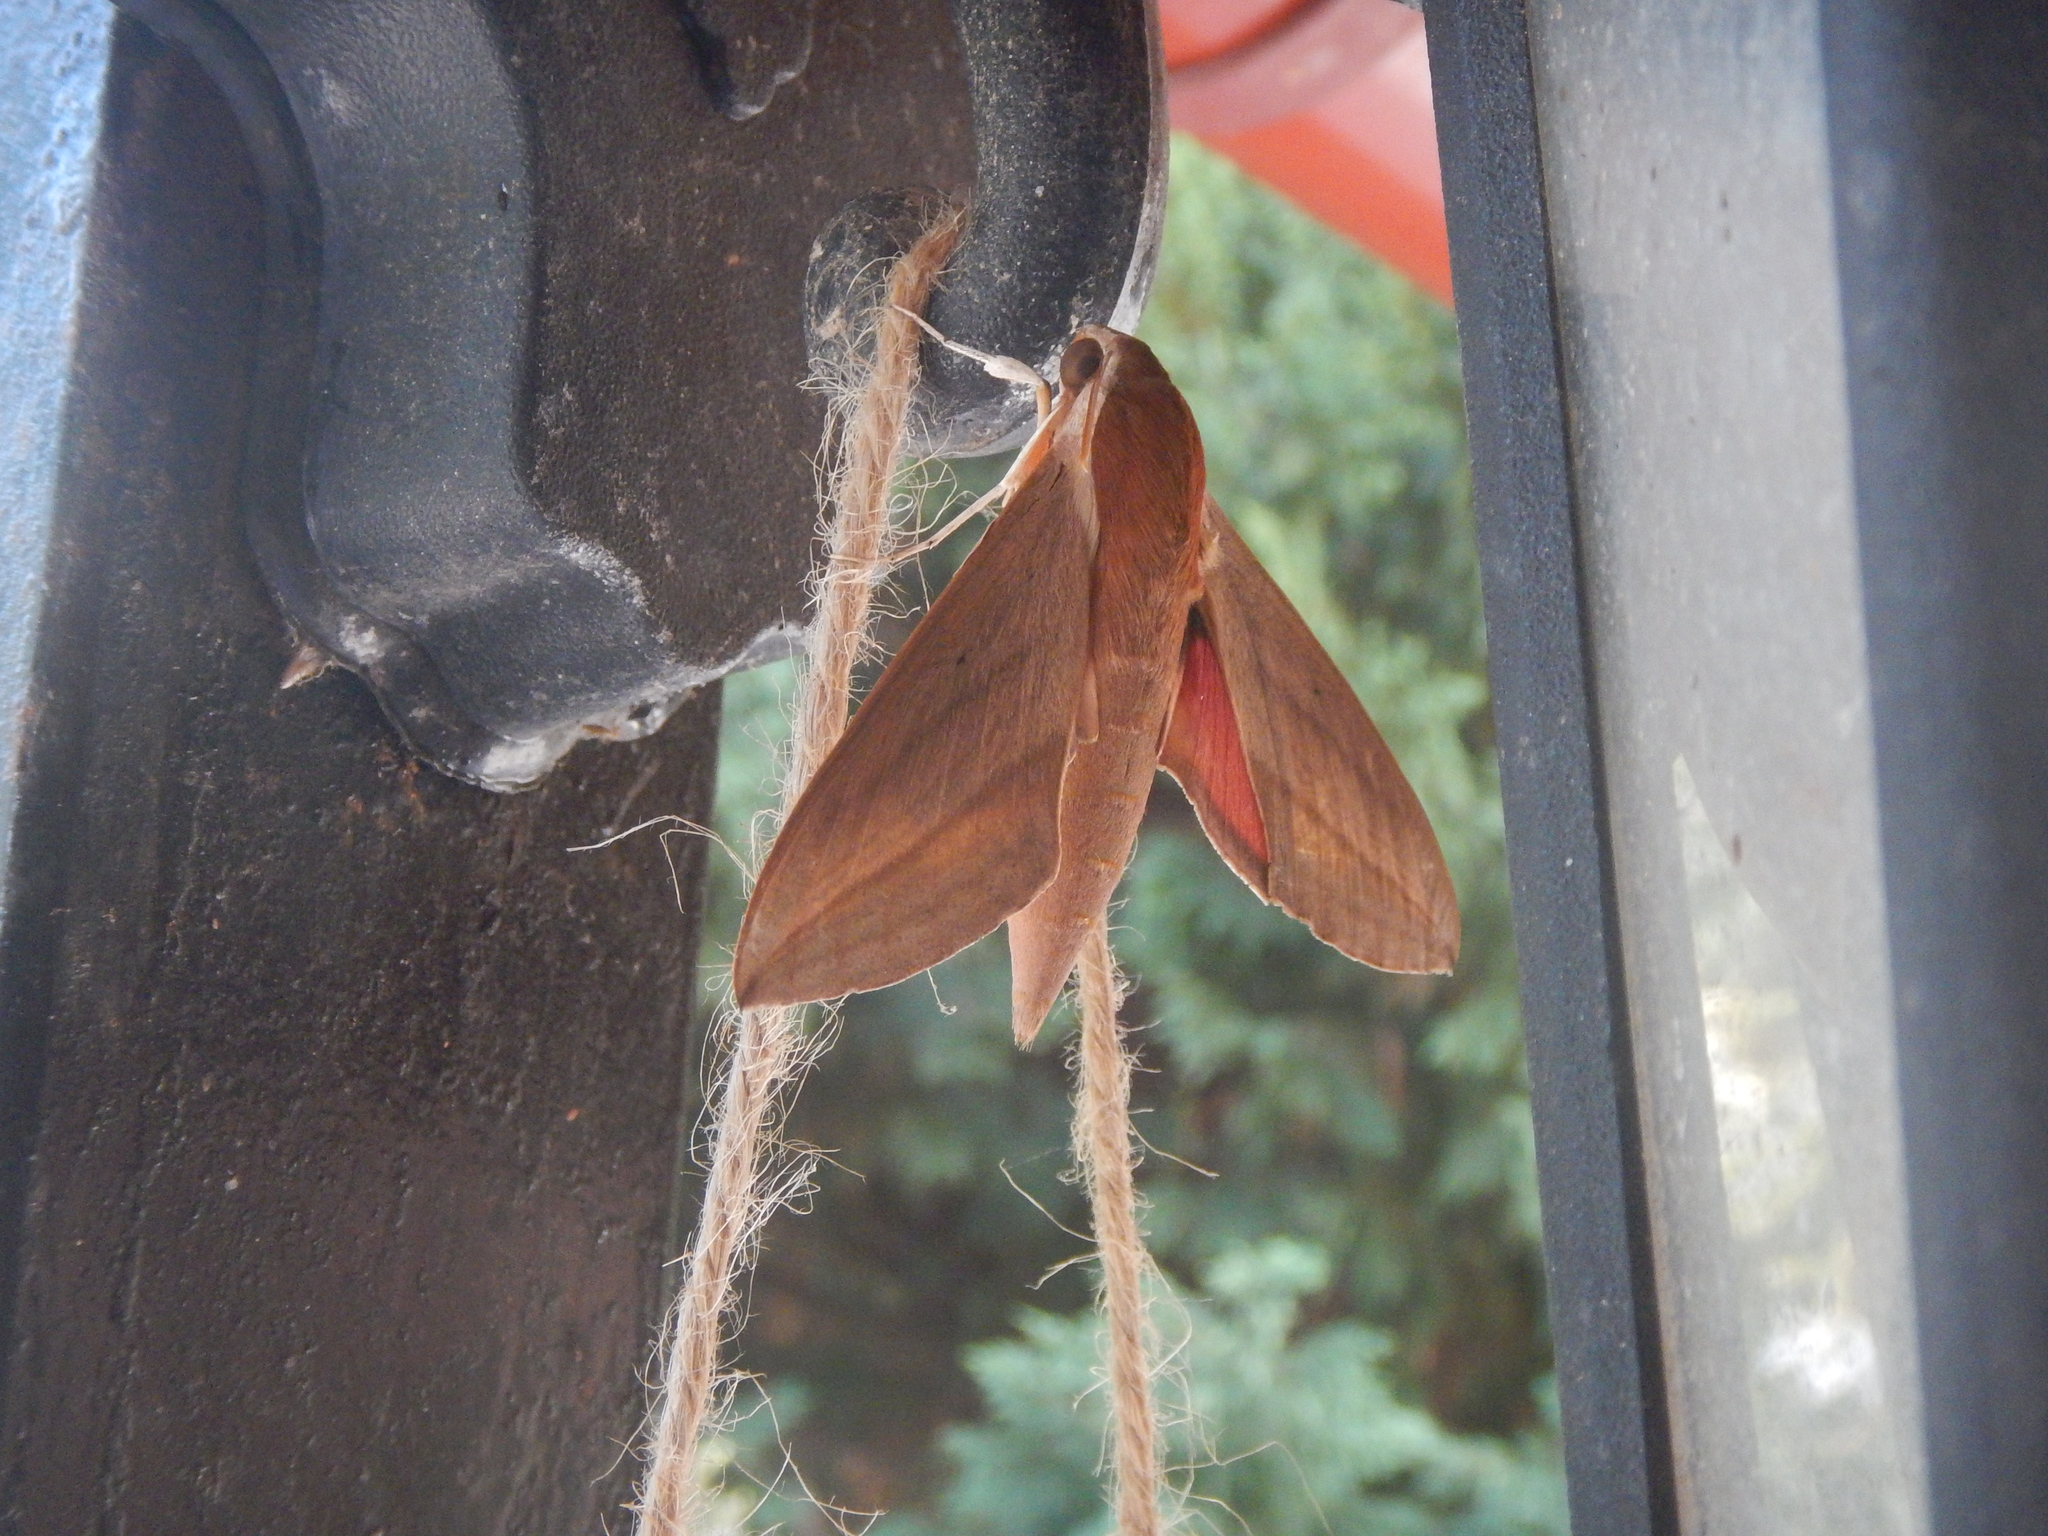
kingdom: Animalia
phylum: Arthropoda
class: Insecta
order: Lepidoptera
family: Sphingidae
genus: Theretra
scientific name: Theretra alecto
